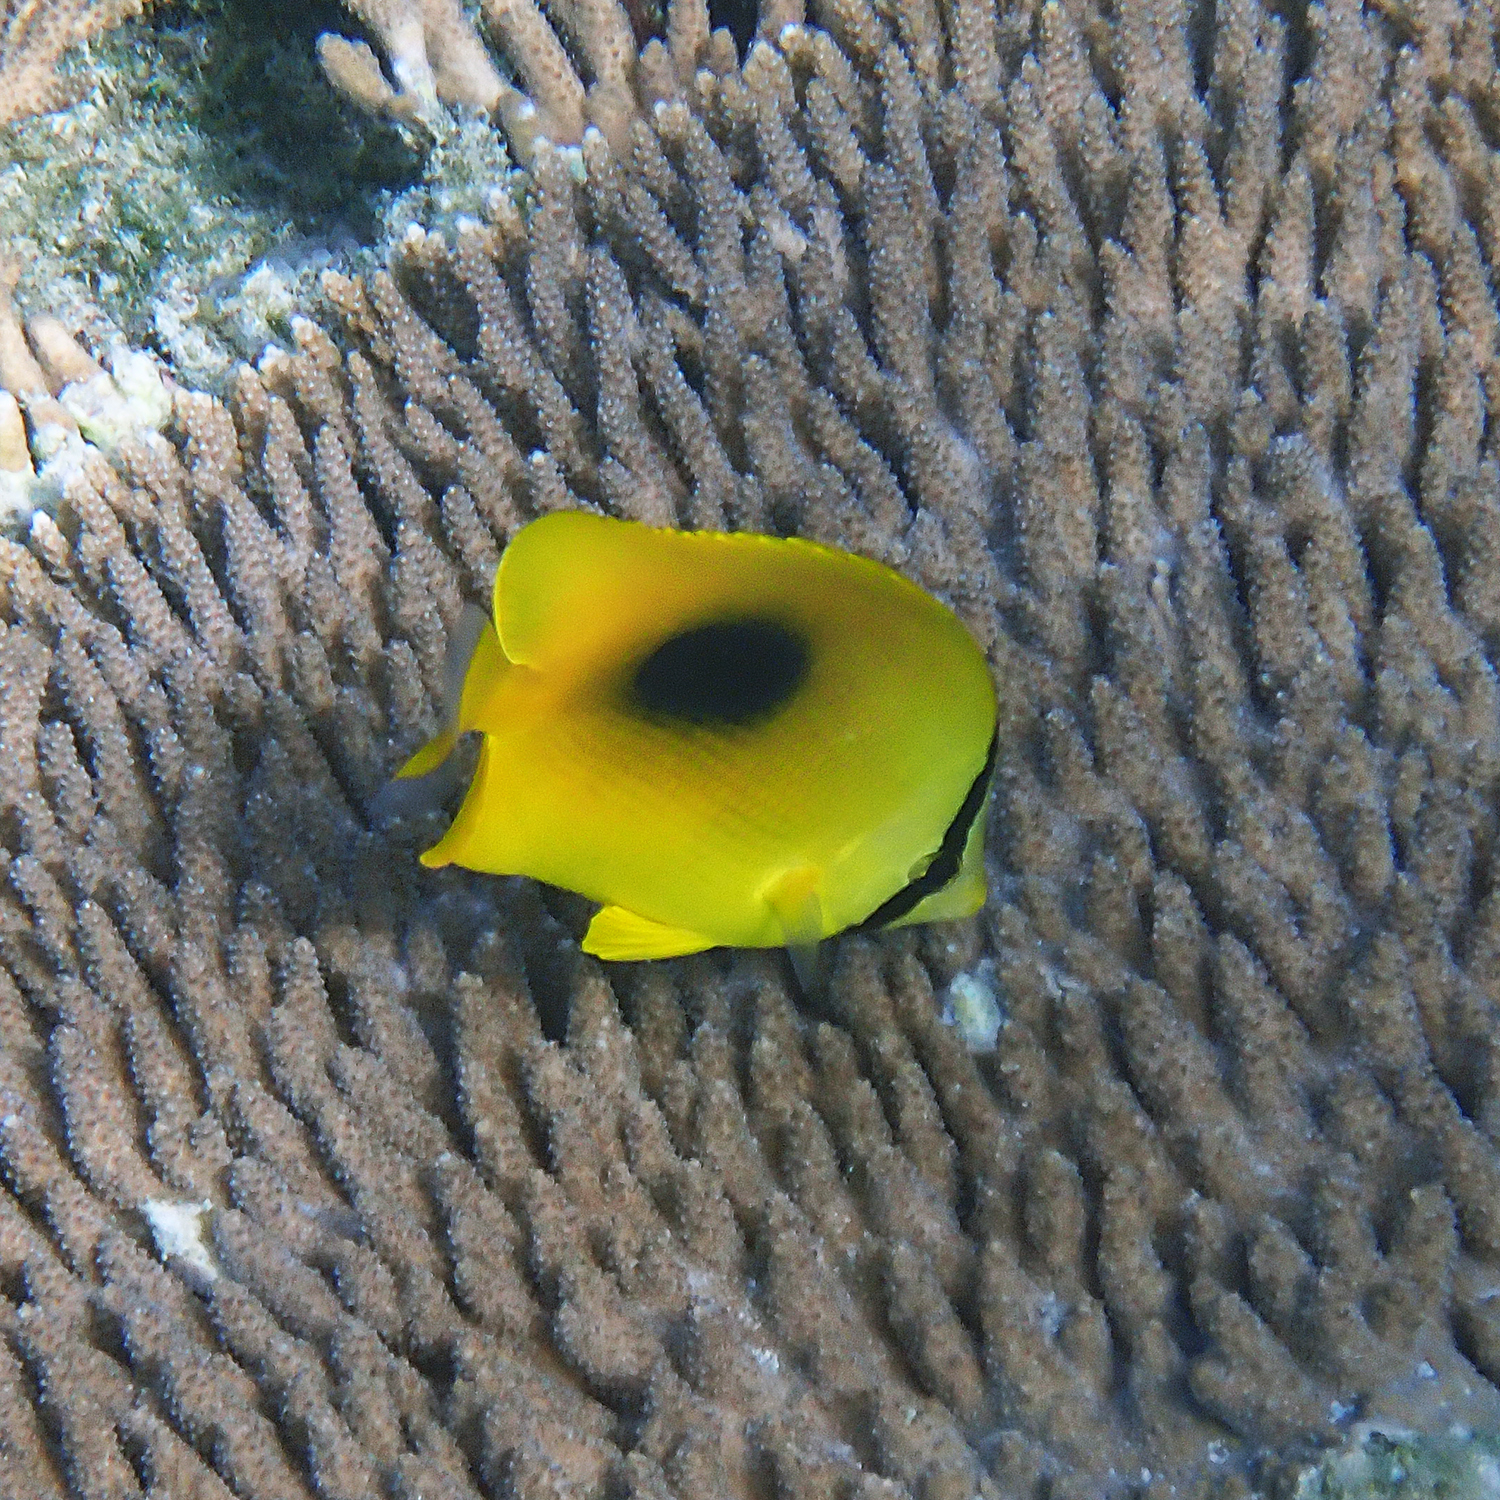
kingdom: Animalia
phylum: Chordata
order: Perciformes
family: Chaetodontidae
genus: Chaetodon
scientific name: Chaetodon speculum
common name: Mirror butterflyfish
